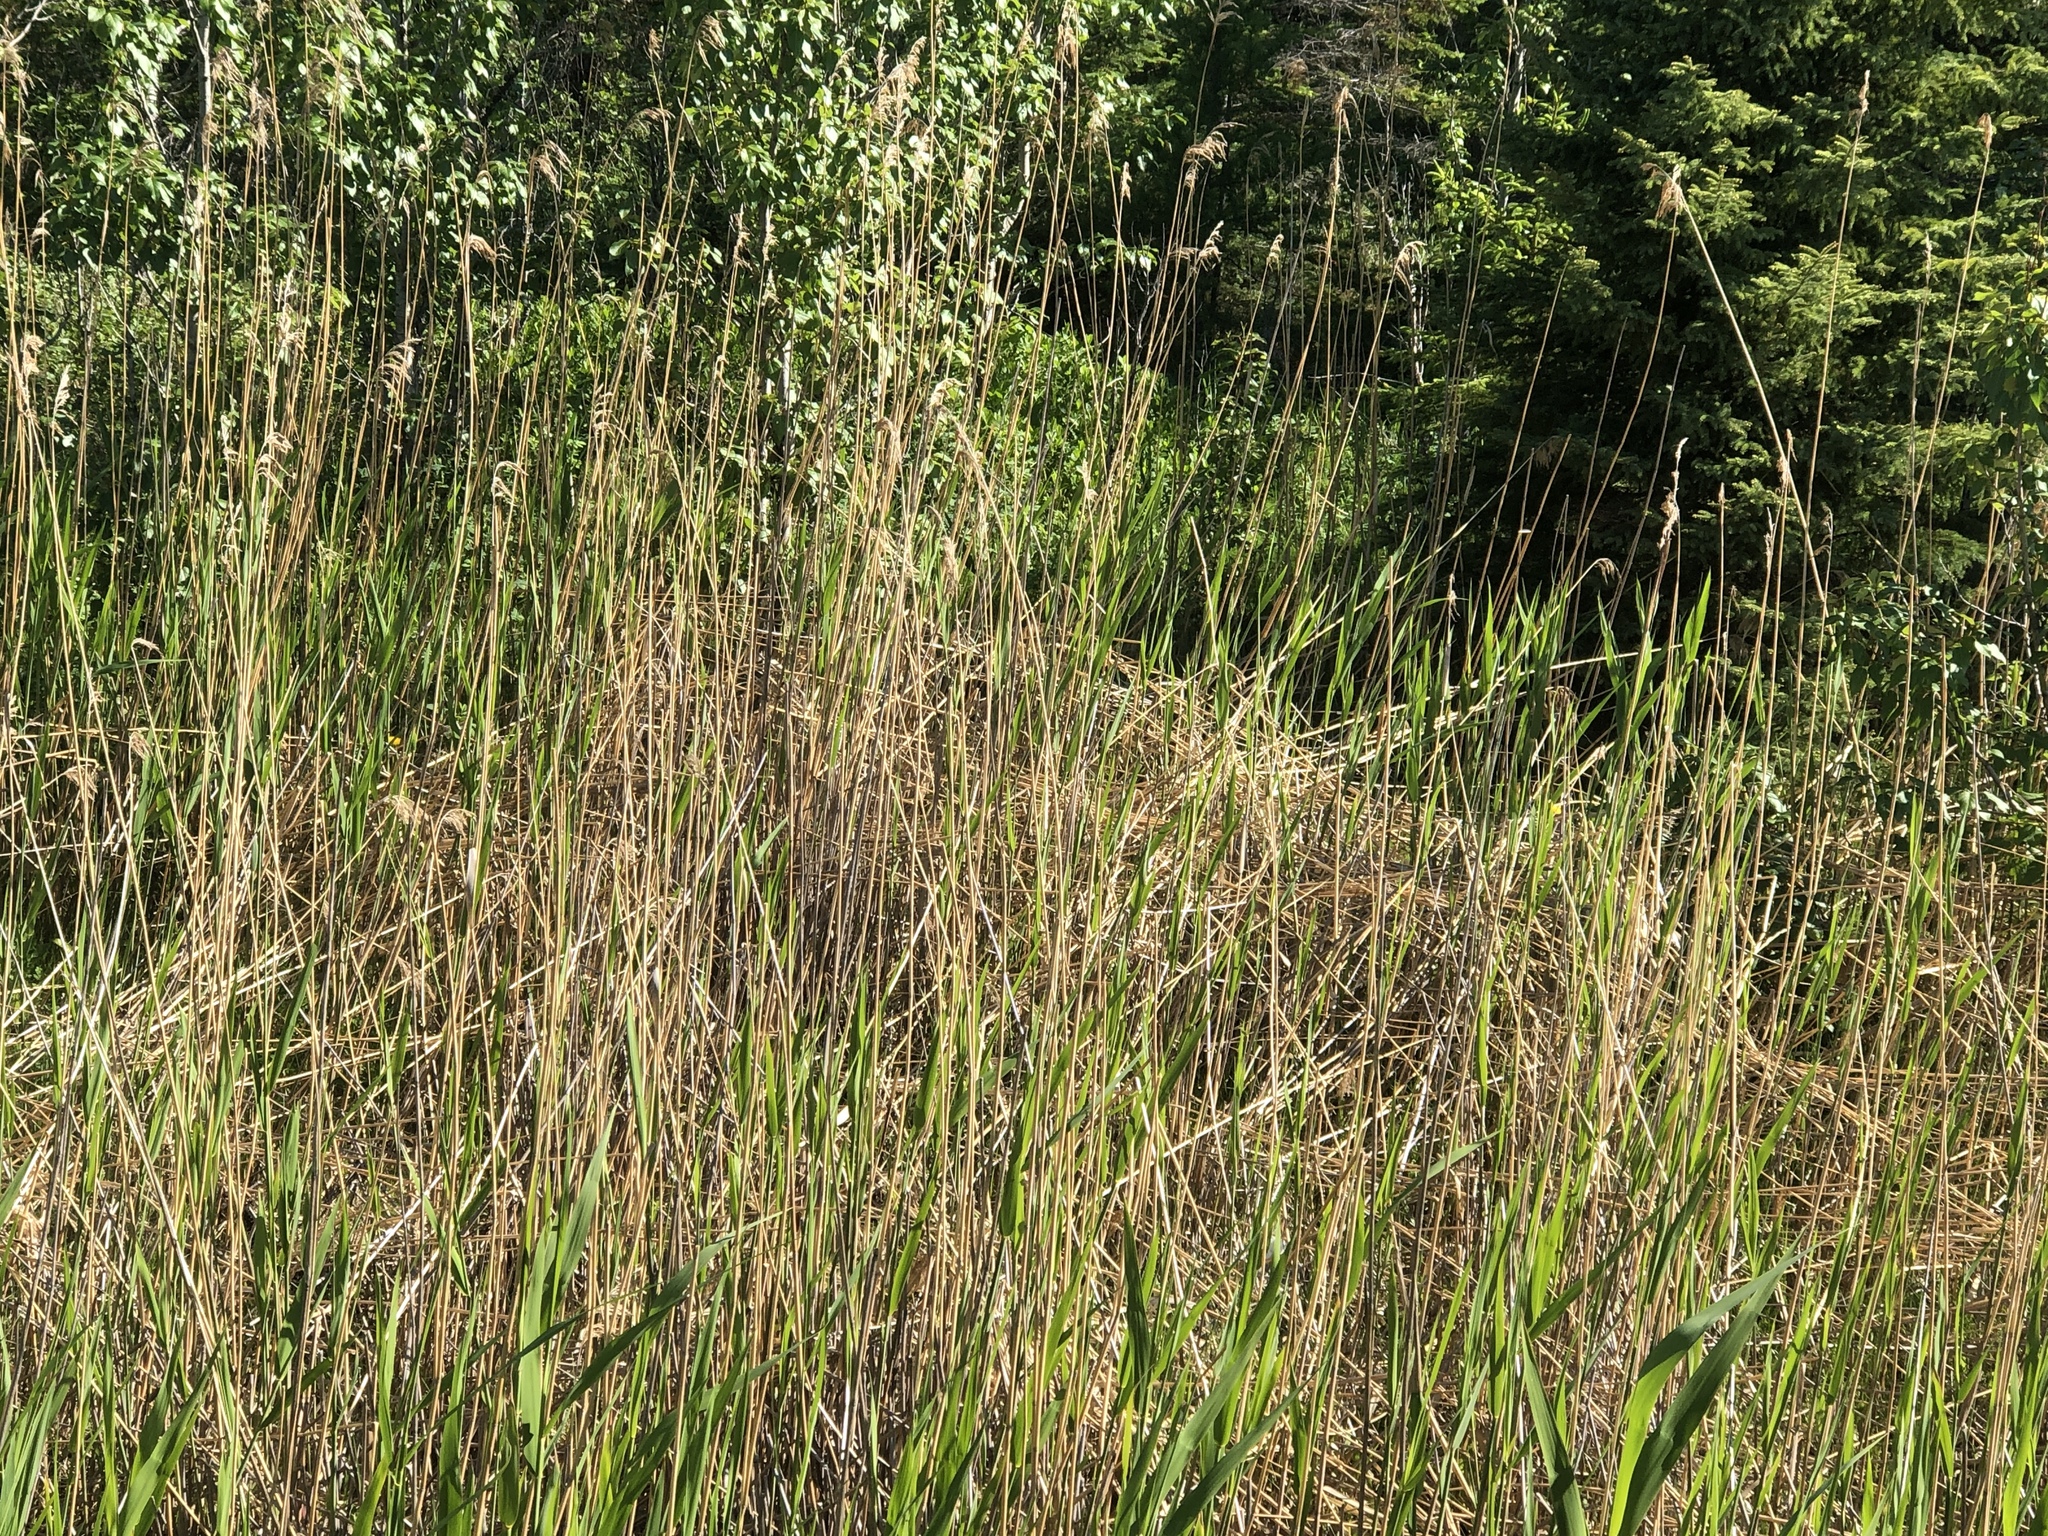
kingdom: Plantae
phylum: Tracheophyta
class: Liliopsida
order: Poales
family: Poaceae
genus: Phragmites
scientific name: Phragmites australis
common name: Common reed
